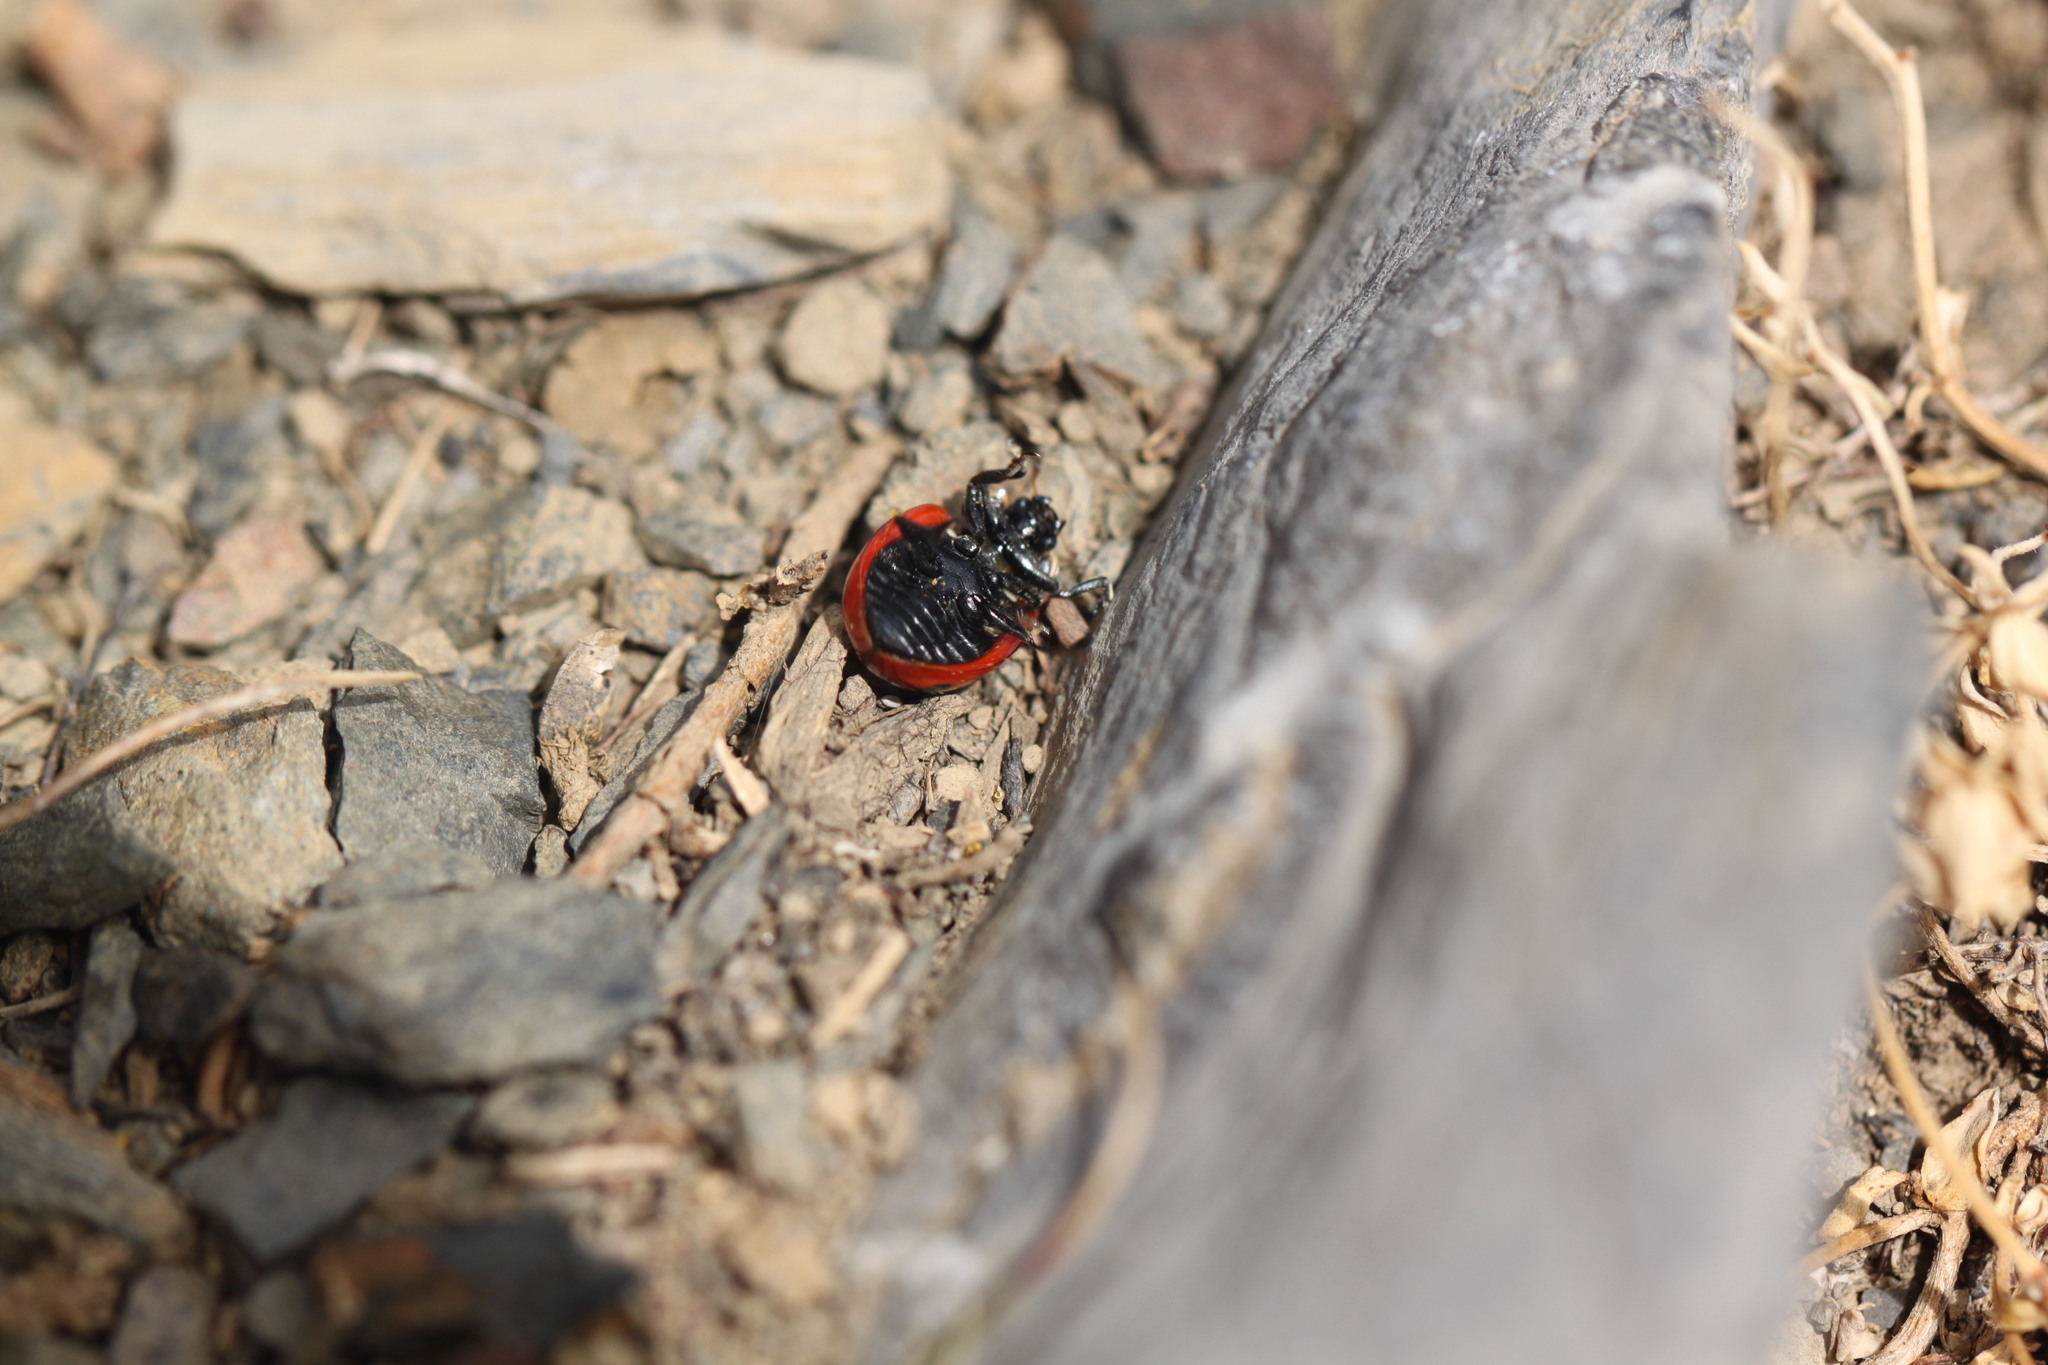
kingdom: Animalia
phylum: Arthropoda
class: Insecta
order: Coleoptera
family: Coccinellidae
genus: Coccinella
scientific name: Coccinella magnifica
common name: Scarce 7-spot ladybird
